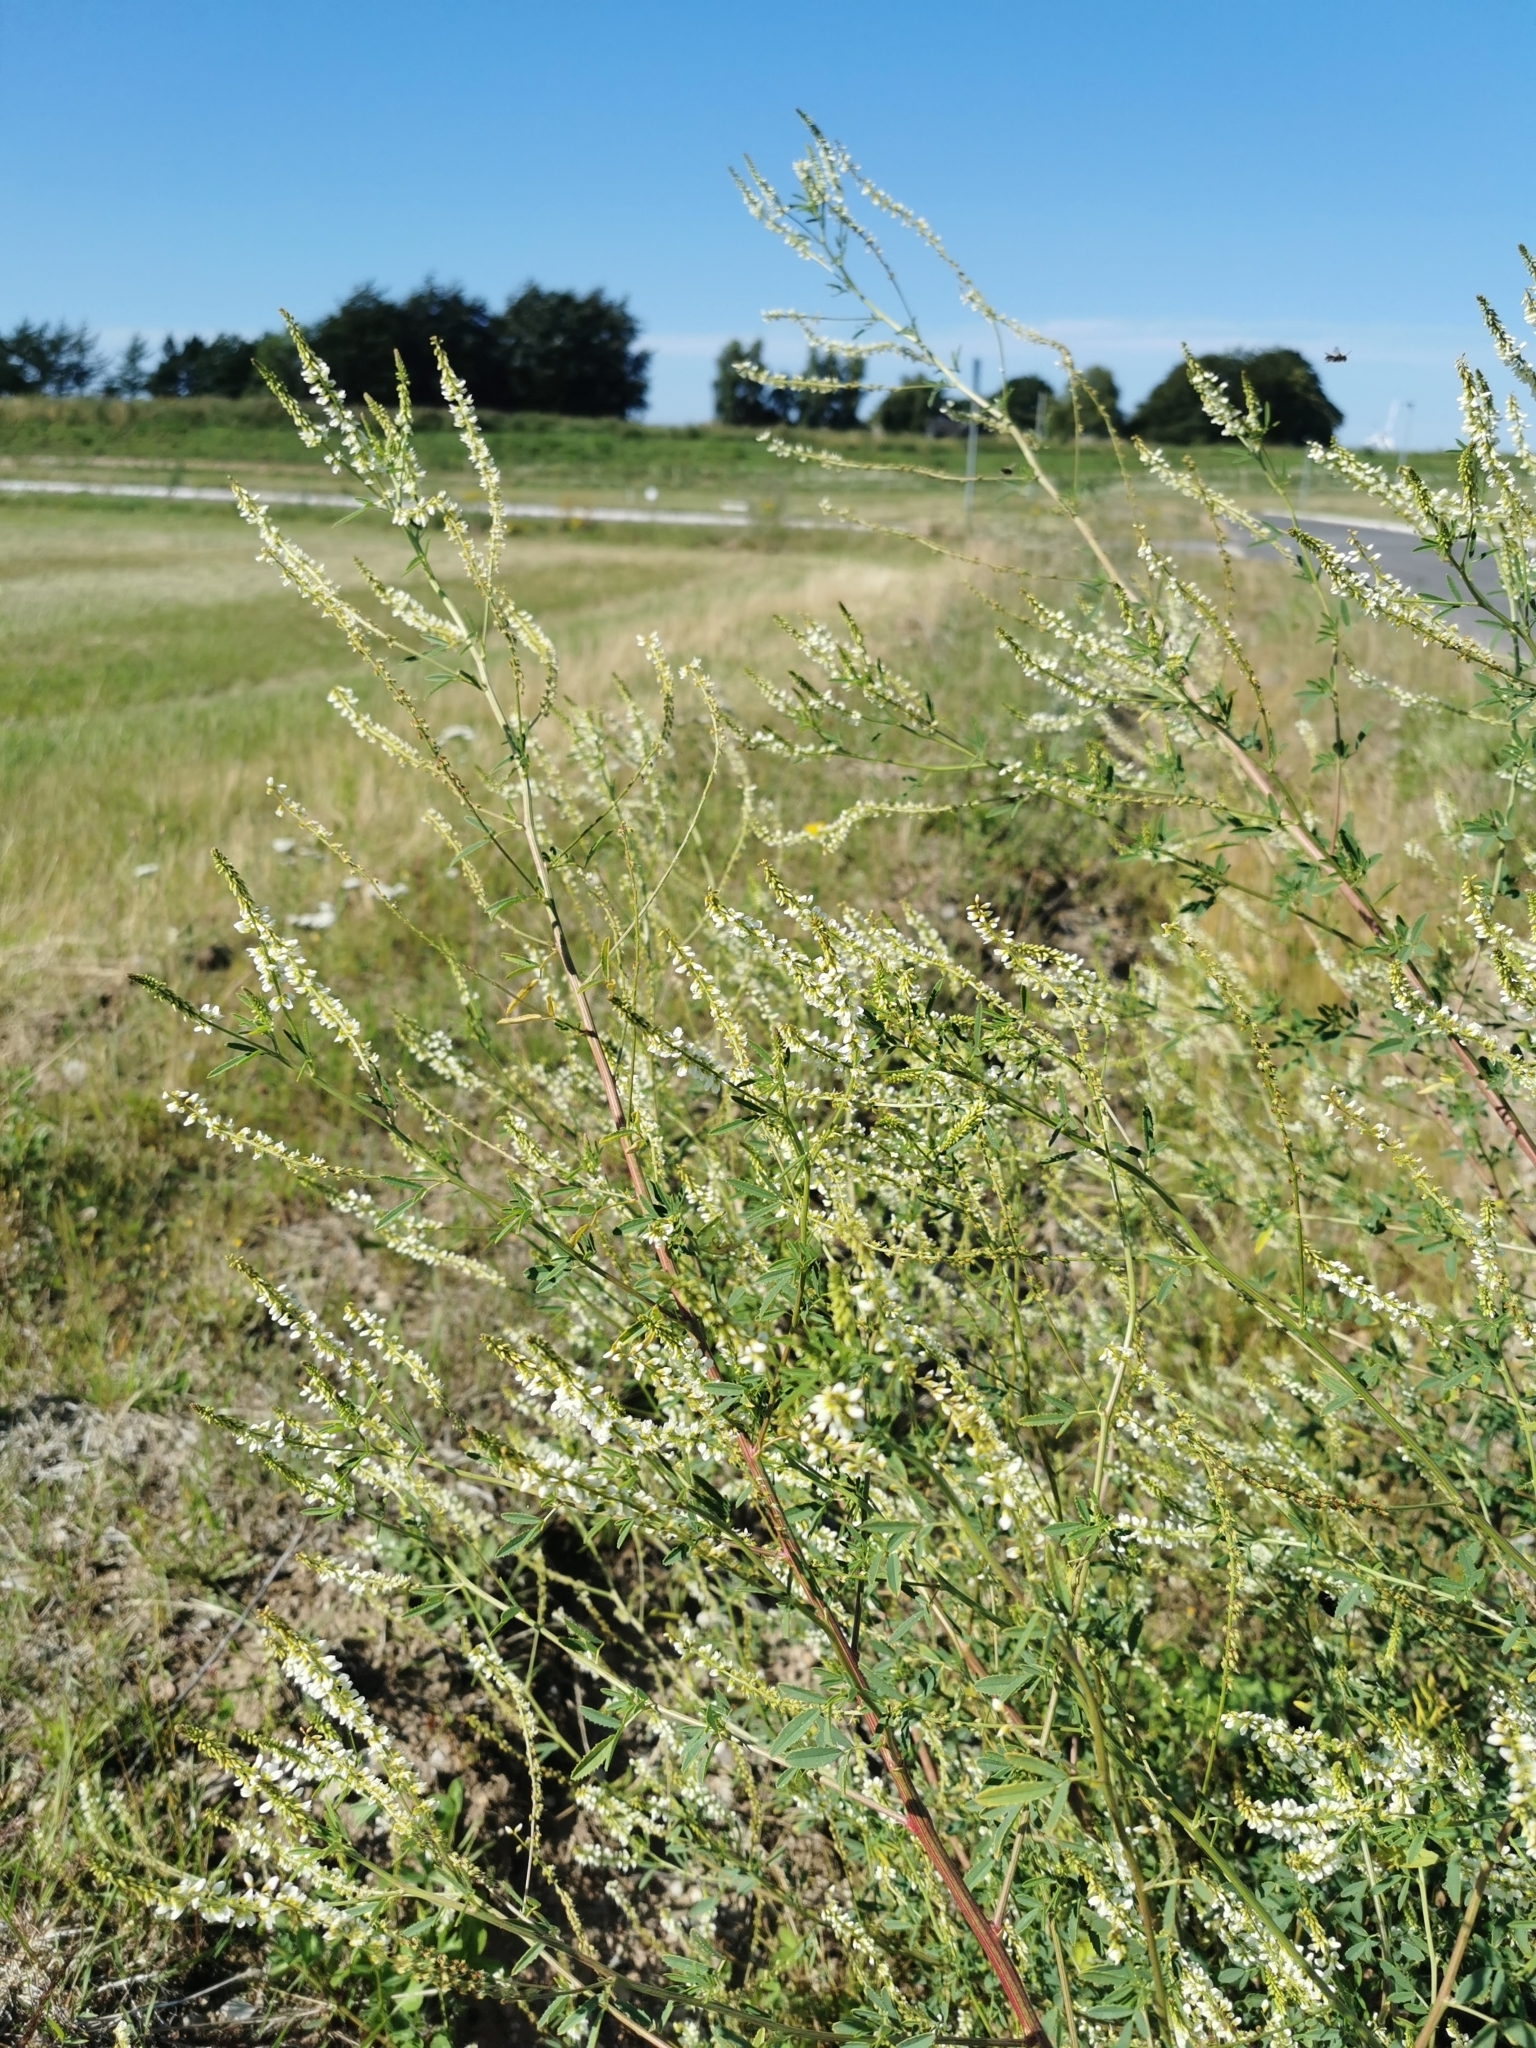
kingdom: Plantae
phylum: Tracheophyta
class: Magnoliopsida
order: Fabales
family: Fabaceae
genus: Melilotus
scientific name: Melilotus albus
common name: White melilot
